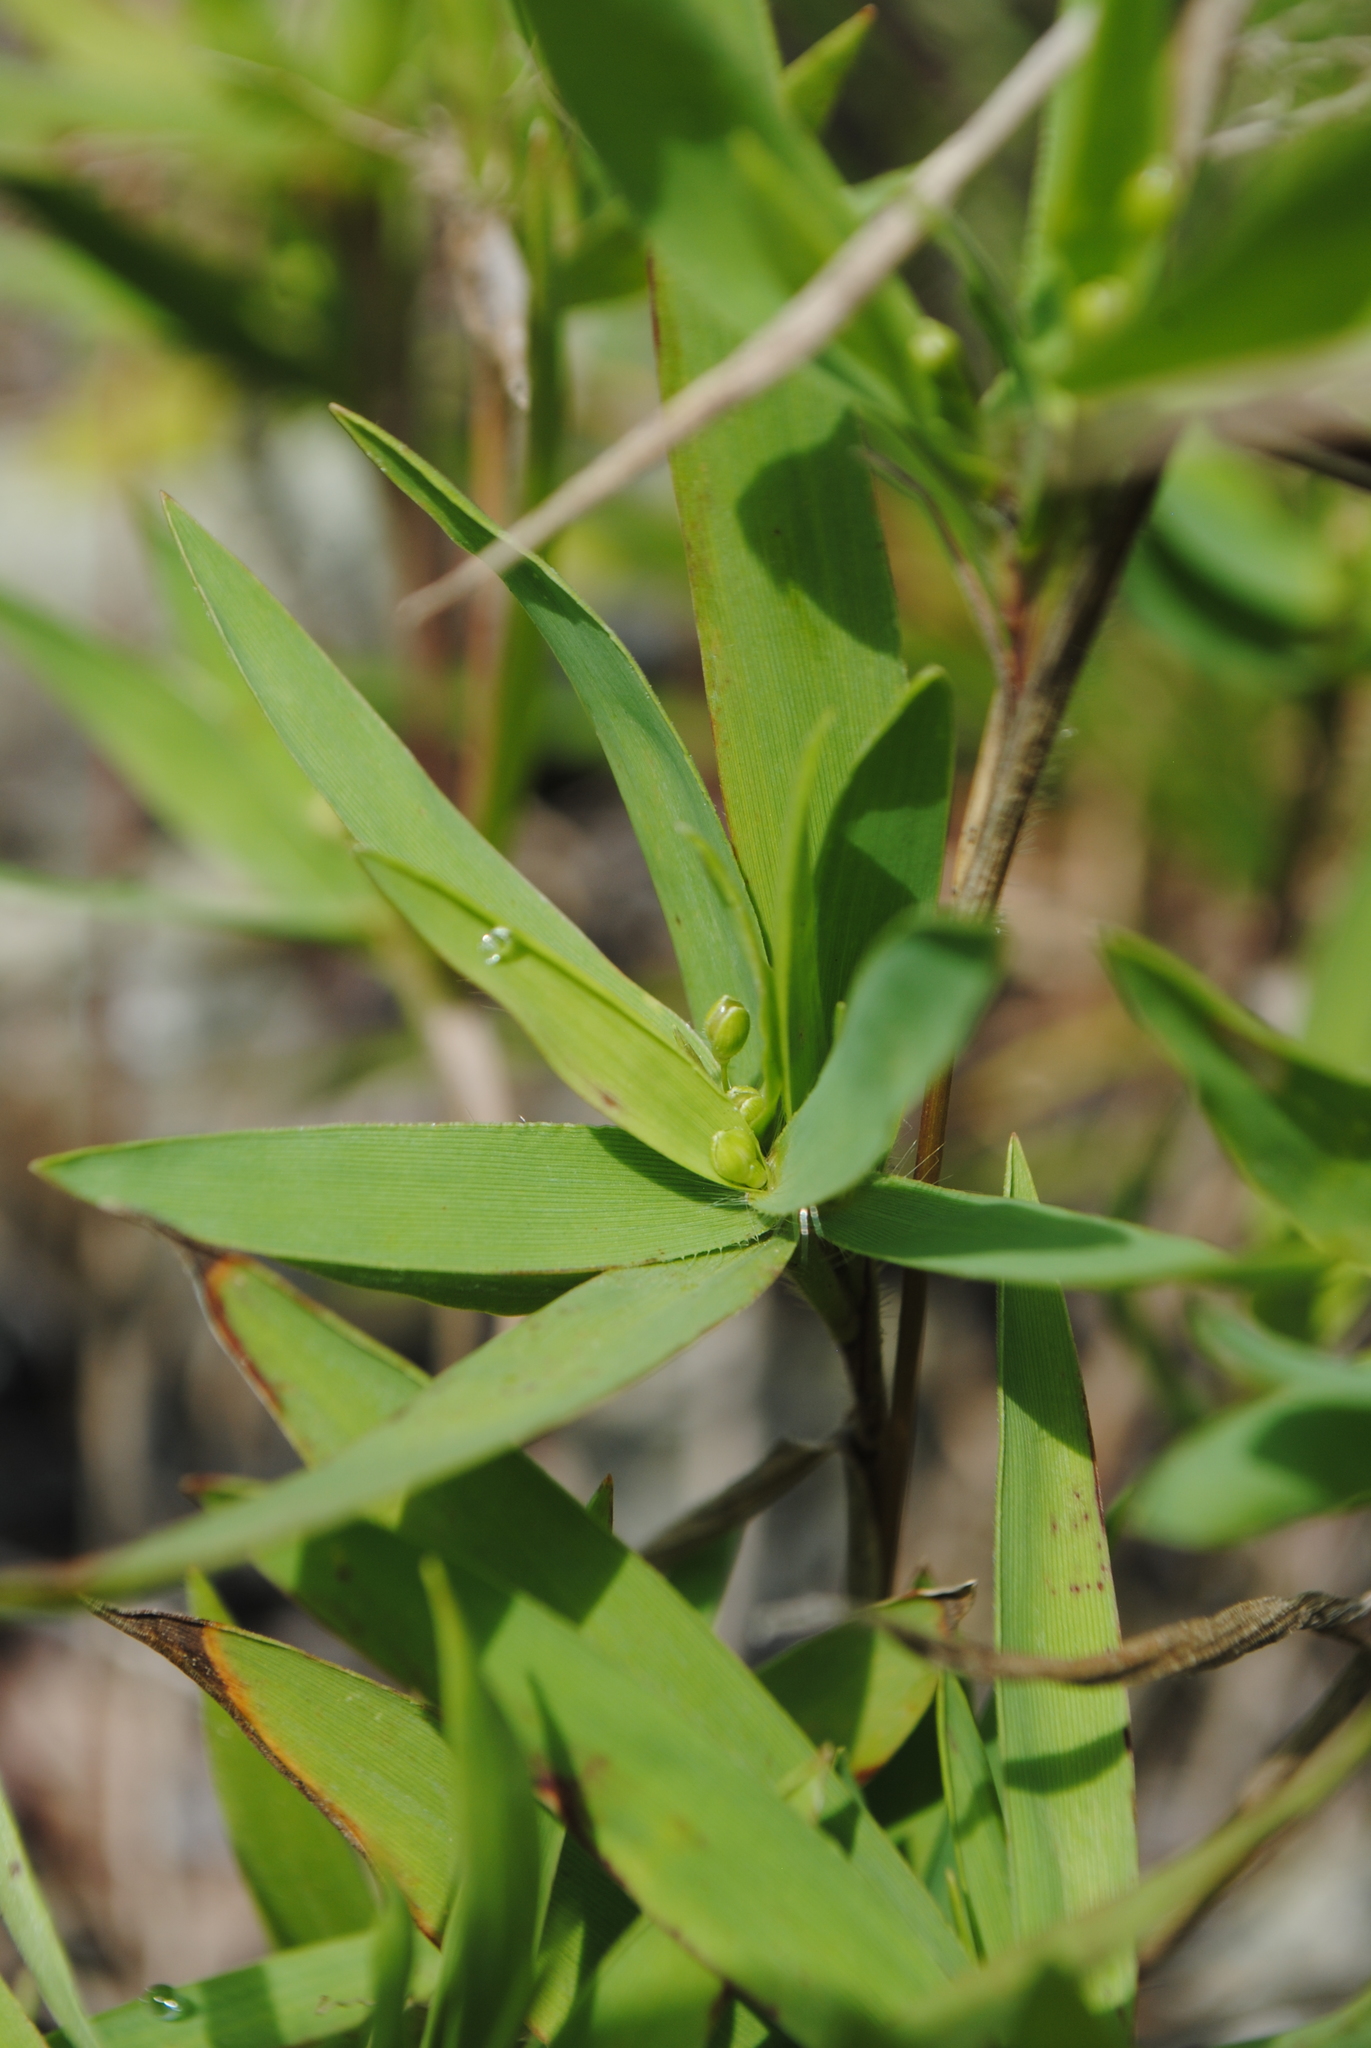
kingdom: Plantae
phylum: Tracheophyta
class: Liliopsida
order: Poales
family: Poaceae
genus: Dichanthelium
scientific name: Dichanthelium scribnerianum
